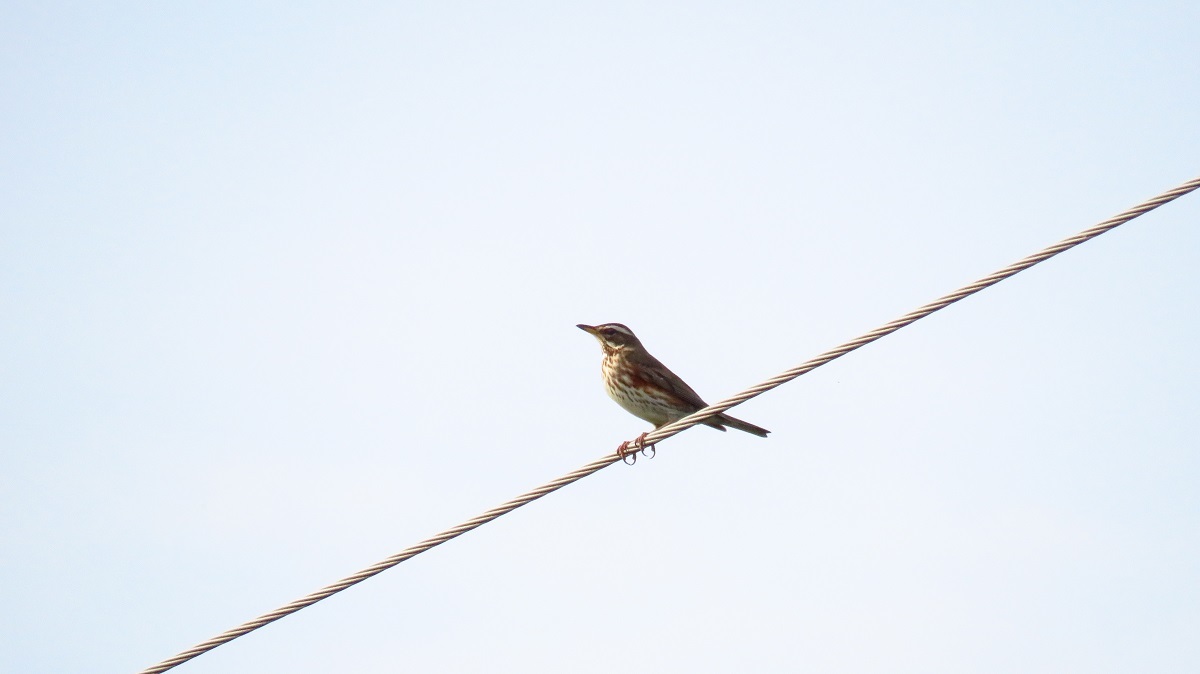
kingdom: Animalia
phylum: Chordata
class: Aves
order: Passeriformes
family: Turdidae
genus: Turdus
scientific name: Turdus iliacus
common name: Redwing
